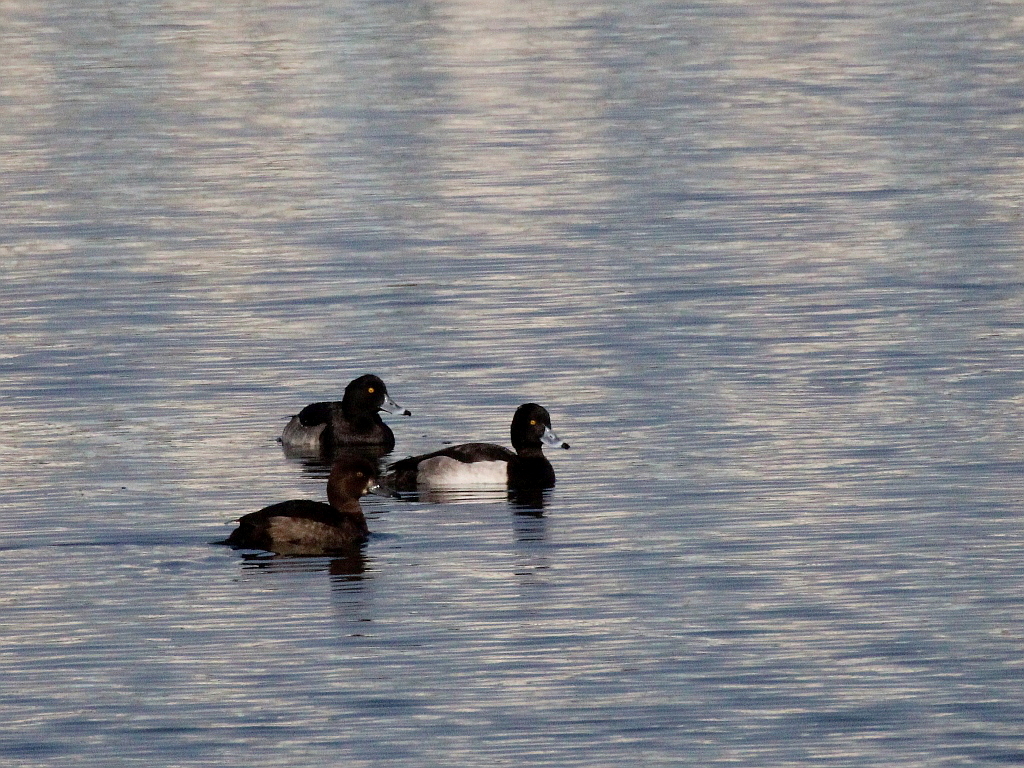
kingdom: Animalia
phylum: Chordata
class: Aves
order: Anseriformes
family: Anatidae
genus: Aythya
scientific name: Aythya fuligula
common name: Tufted duck
